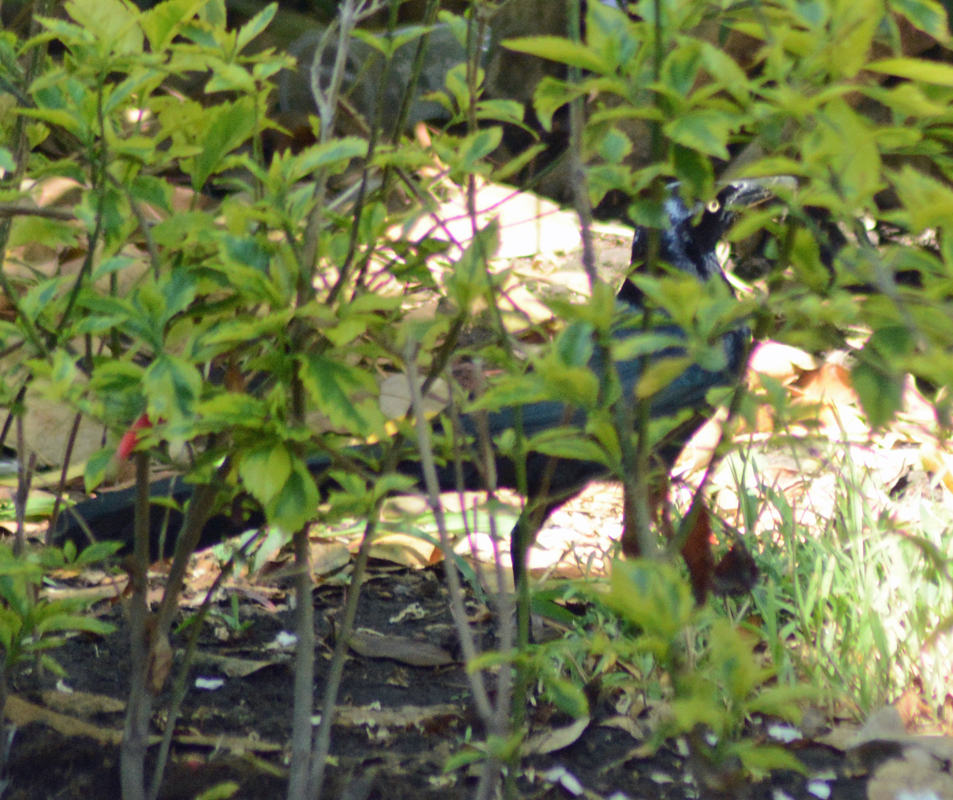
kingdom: Animalia
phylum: Chordata
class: Aves
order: Passeriformes
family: Icteridae
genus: Quiscalus
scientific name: Quiscalus mexicanus
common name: Great-tailed grackle
